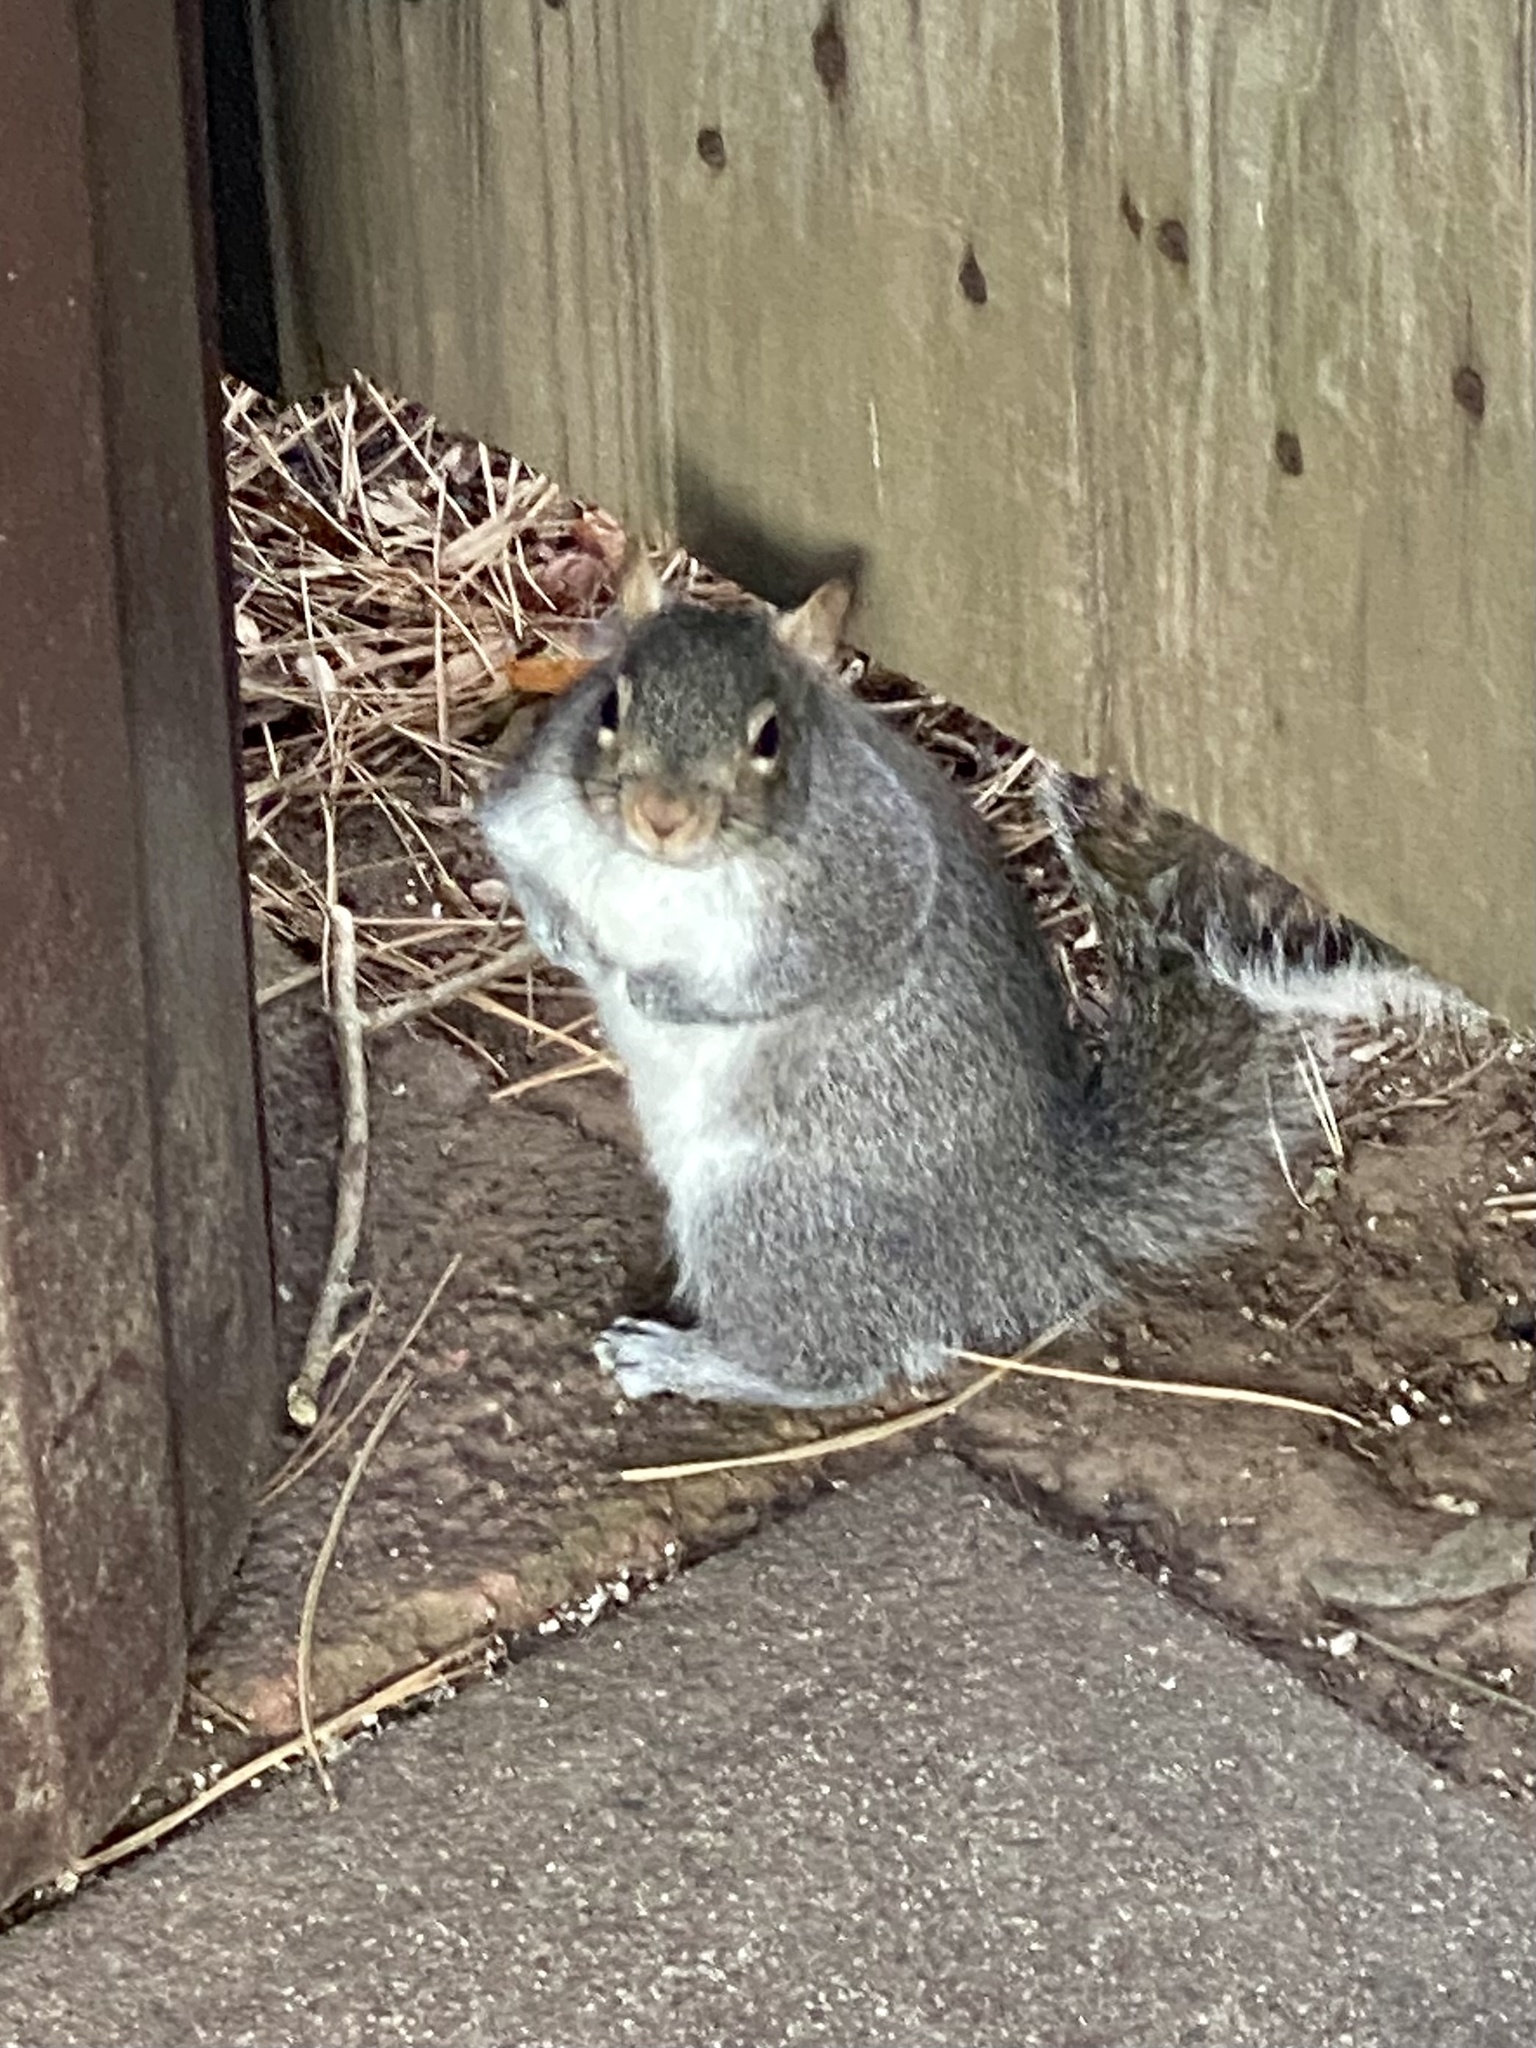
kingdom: Animalia
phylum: Chordata
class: Mammalia
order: Rodentia
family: Sciuridae
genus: Sciurus
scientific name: Sciurus carolinensis
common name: Eastern gray squirrel
